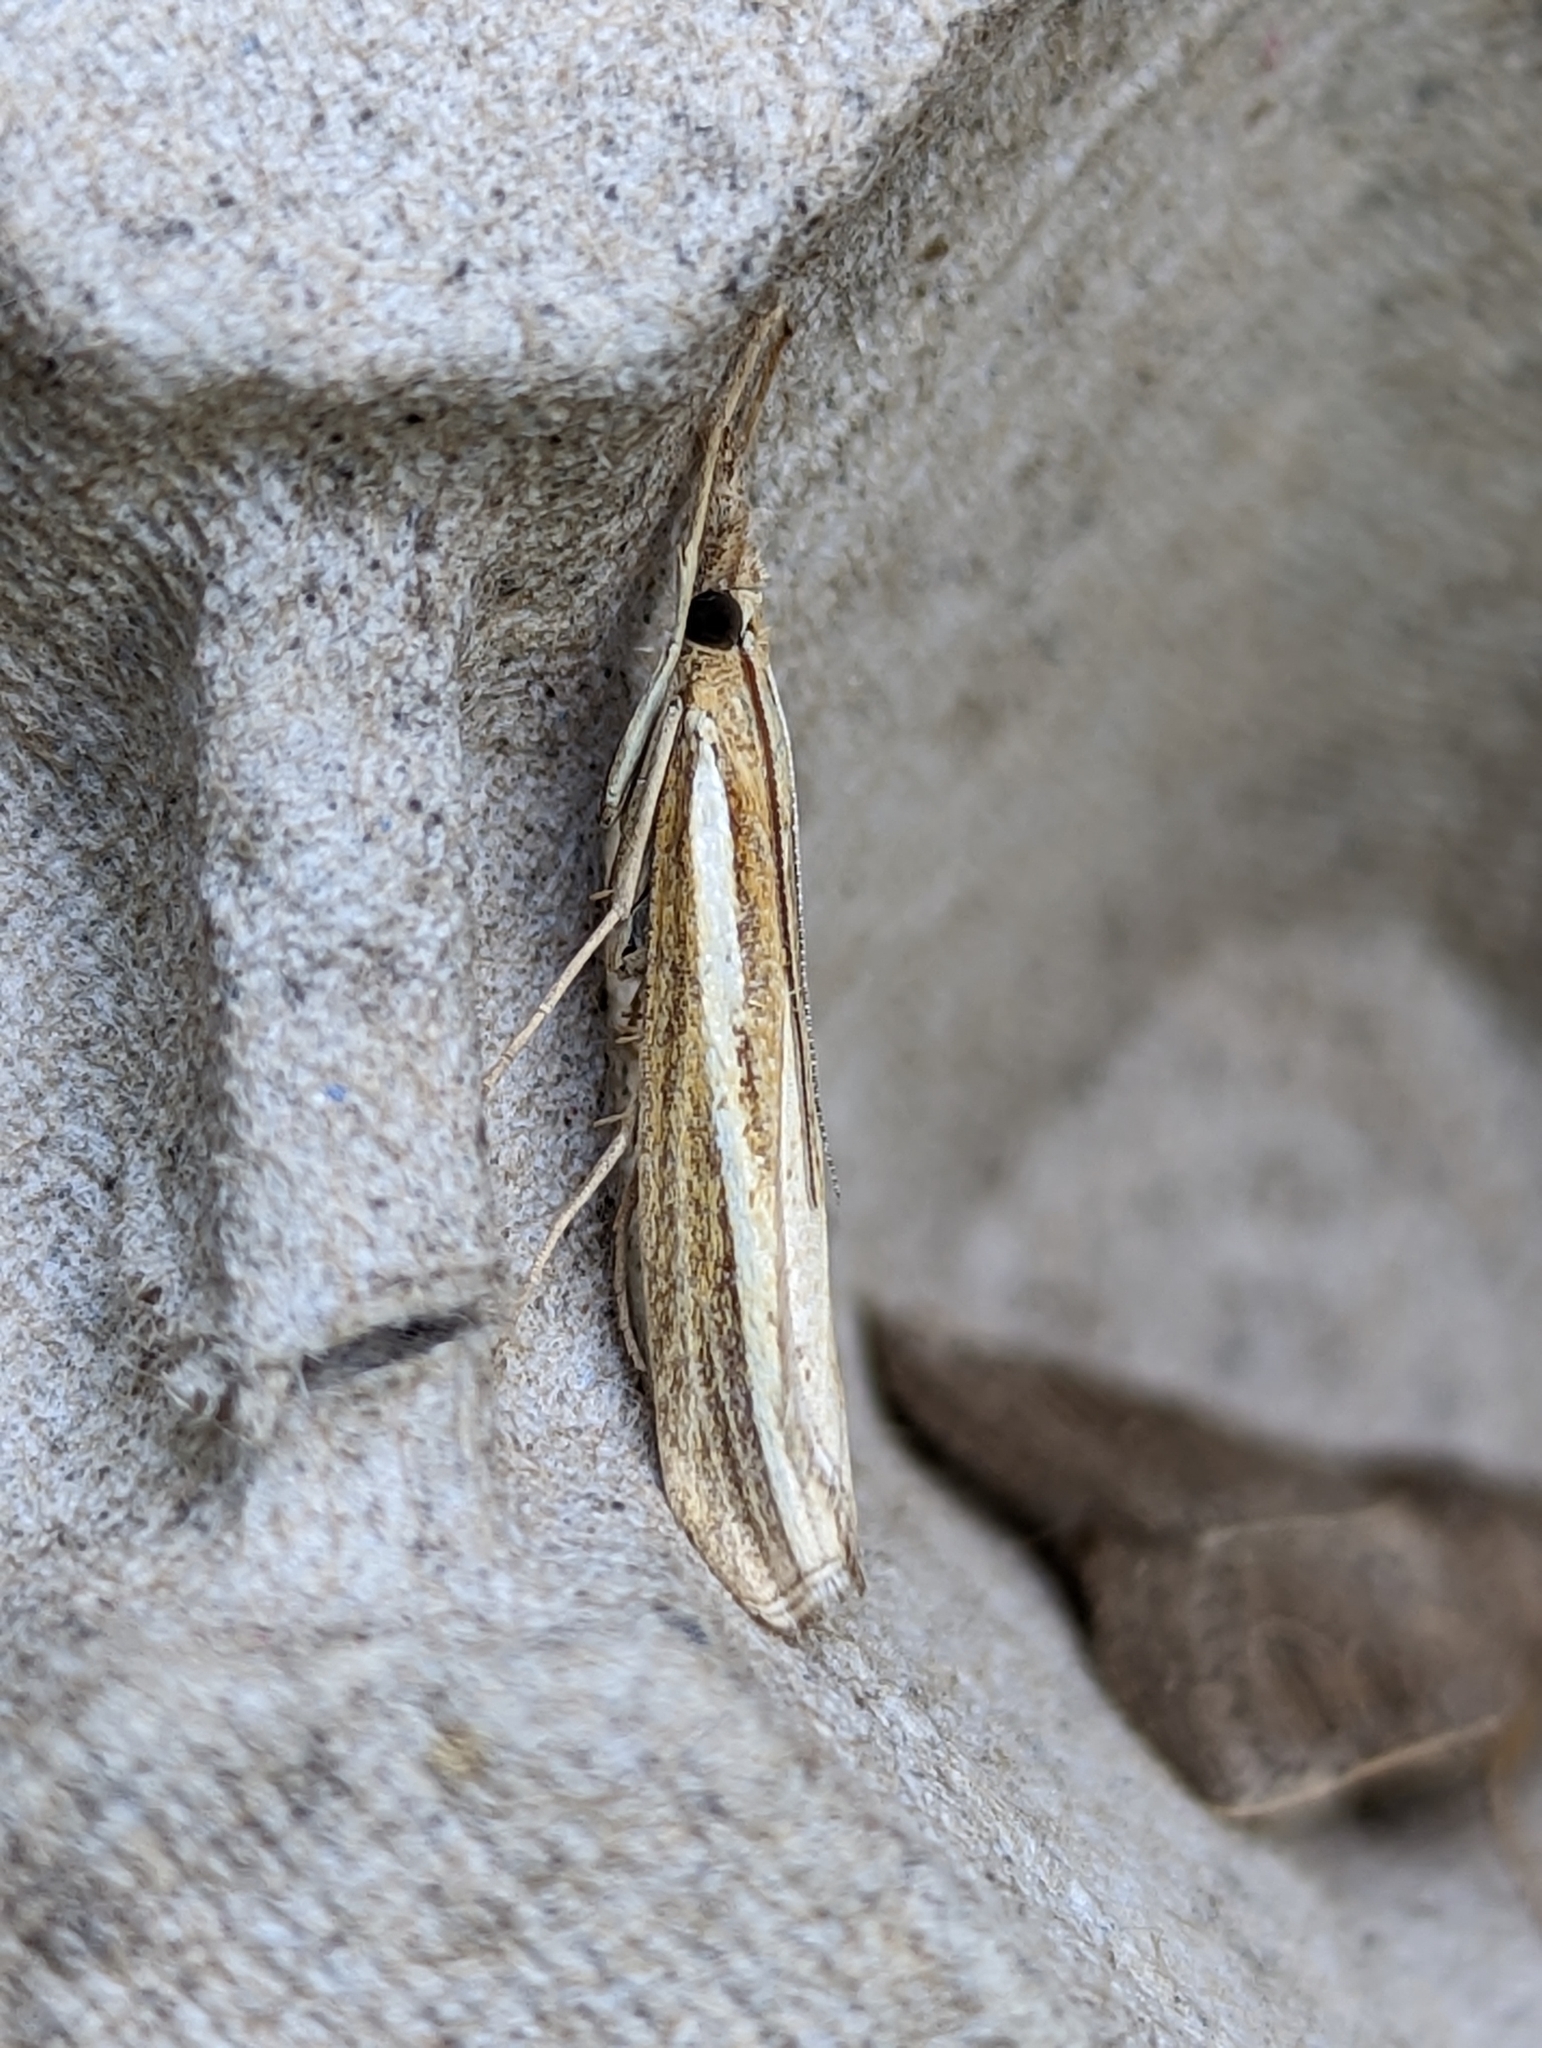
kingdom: Animalia
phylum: Arthropoda
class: Insecta
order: Lepidoptera
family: Crambidae
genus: Agriphila
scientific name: Agriphila tristellus
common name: Common grass-veneer
